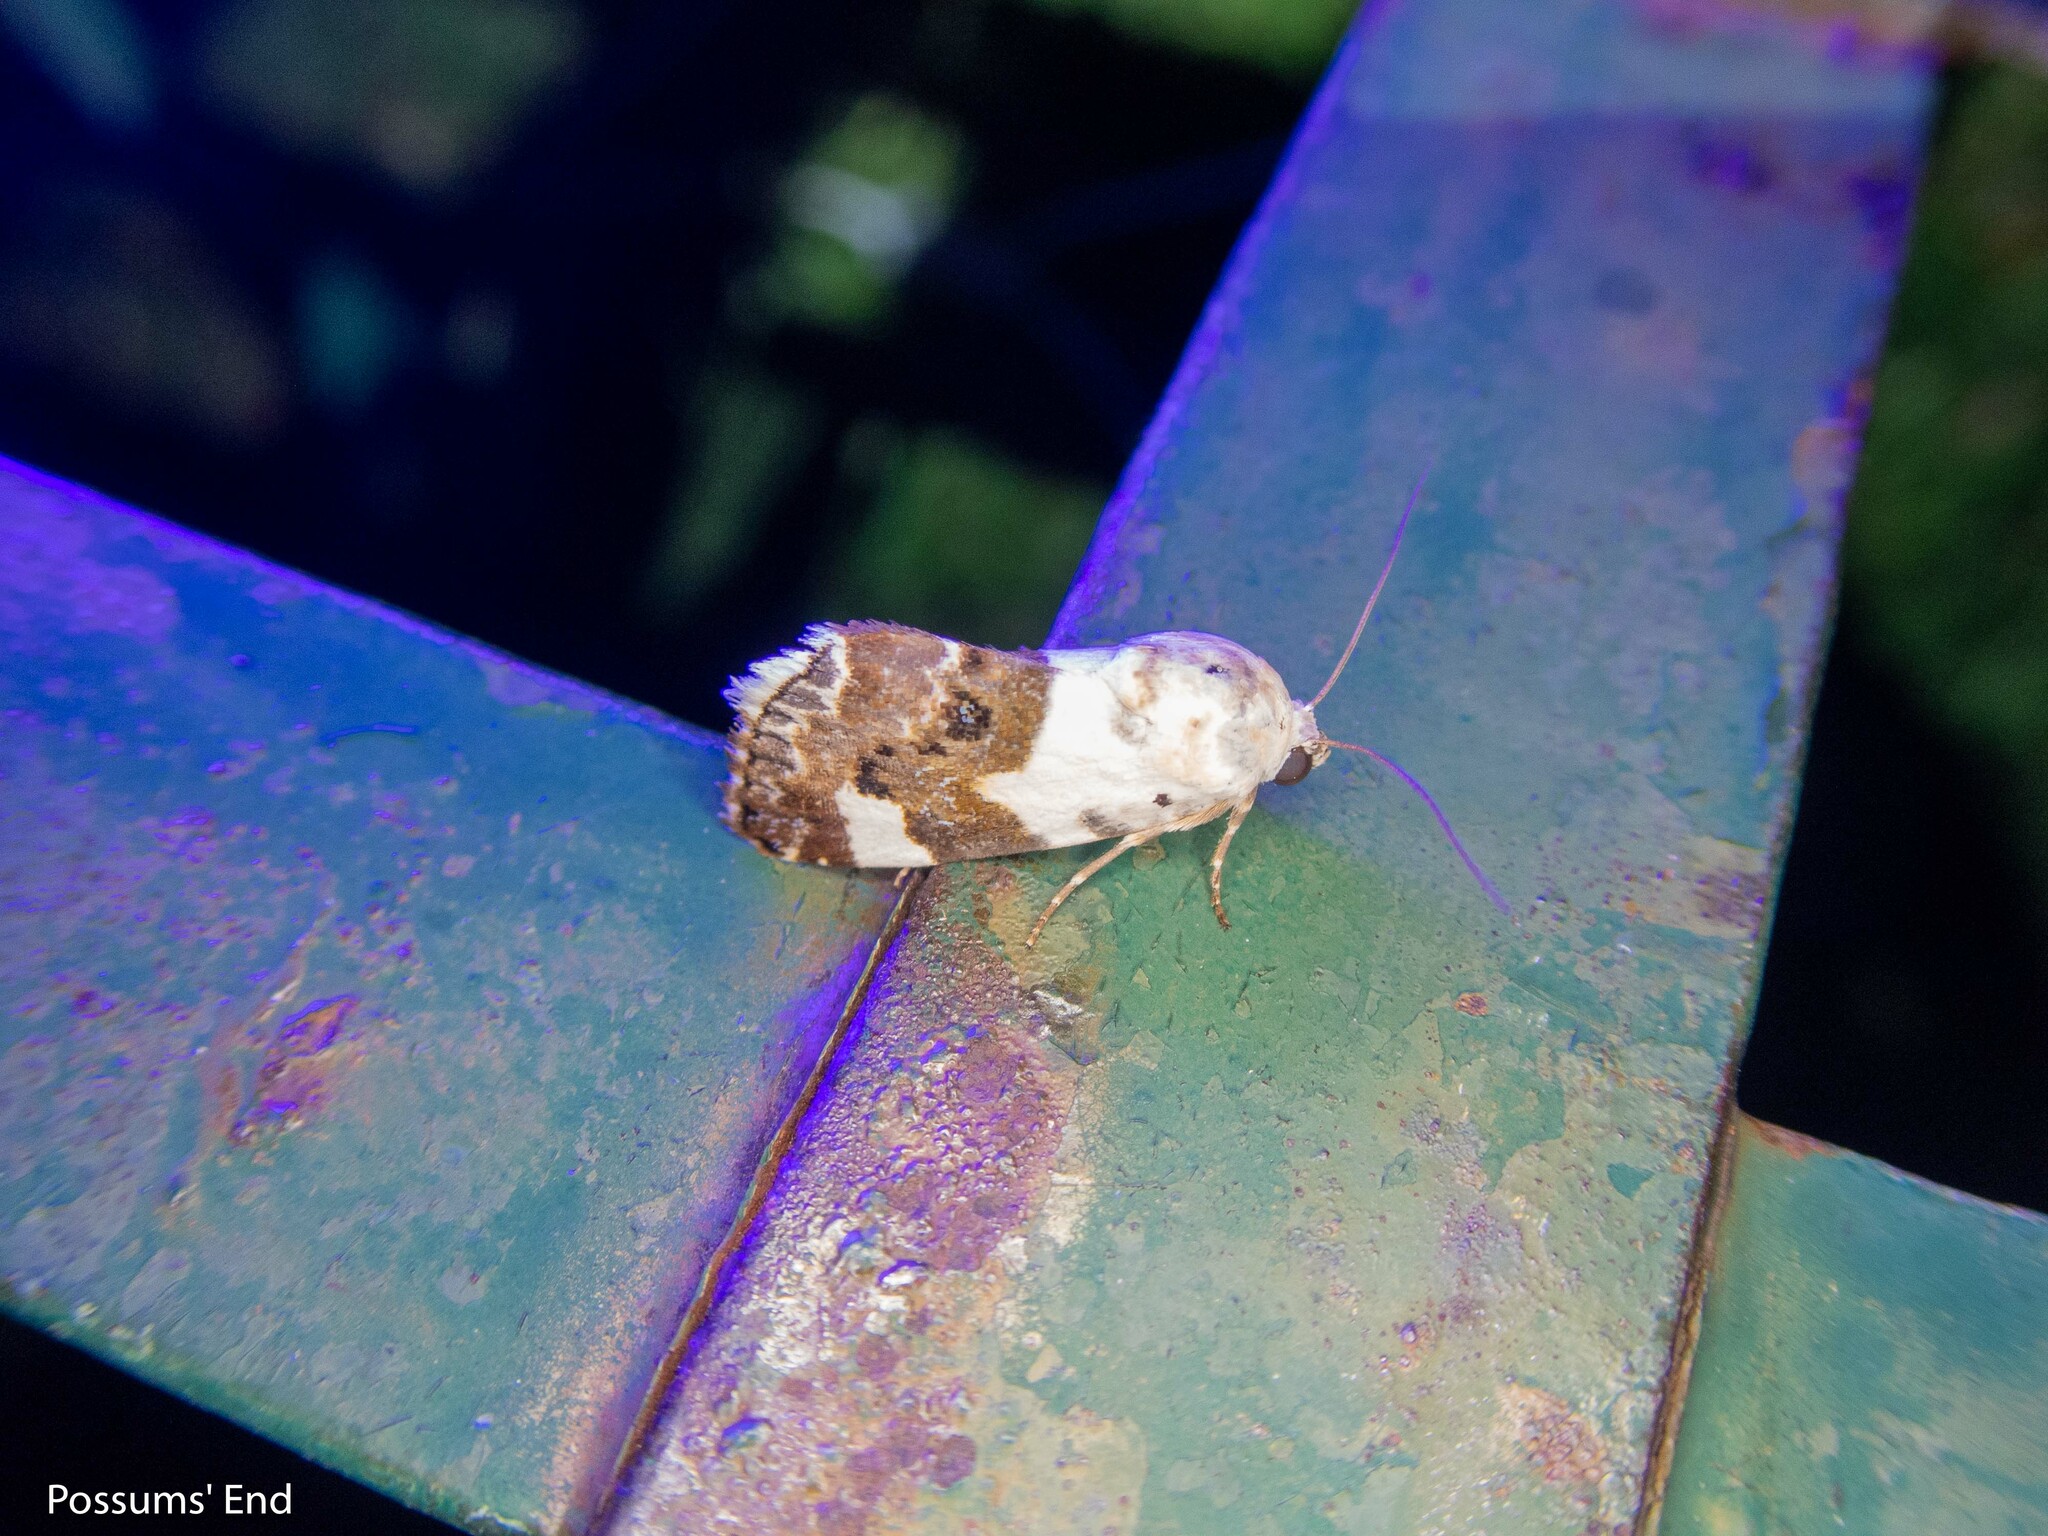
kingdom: Animalia
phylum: Arthropoda
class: Insecta
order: Lepidoptera
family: Noctuidae
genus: Acontia
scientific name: Acontia lucida
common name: Pale shoulder
